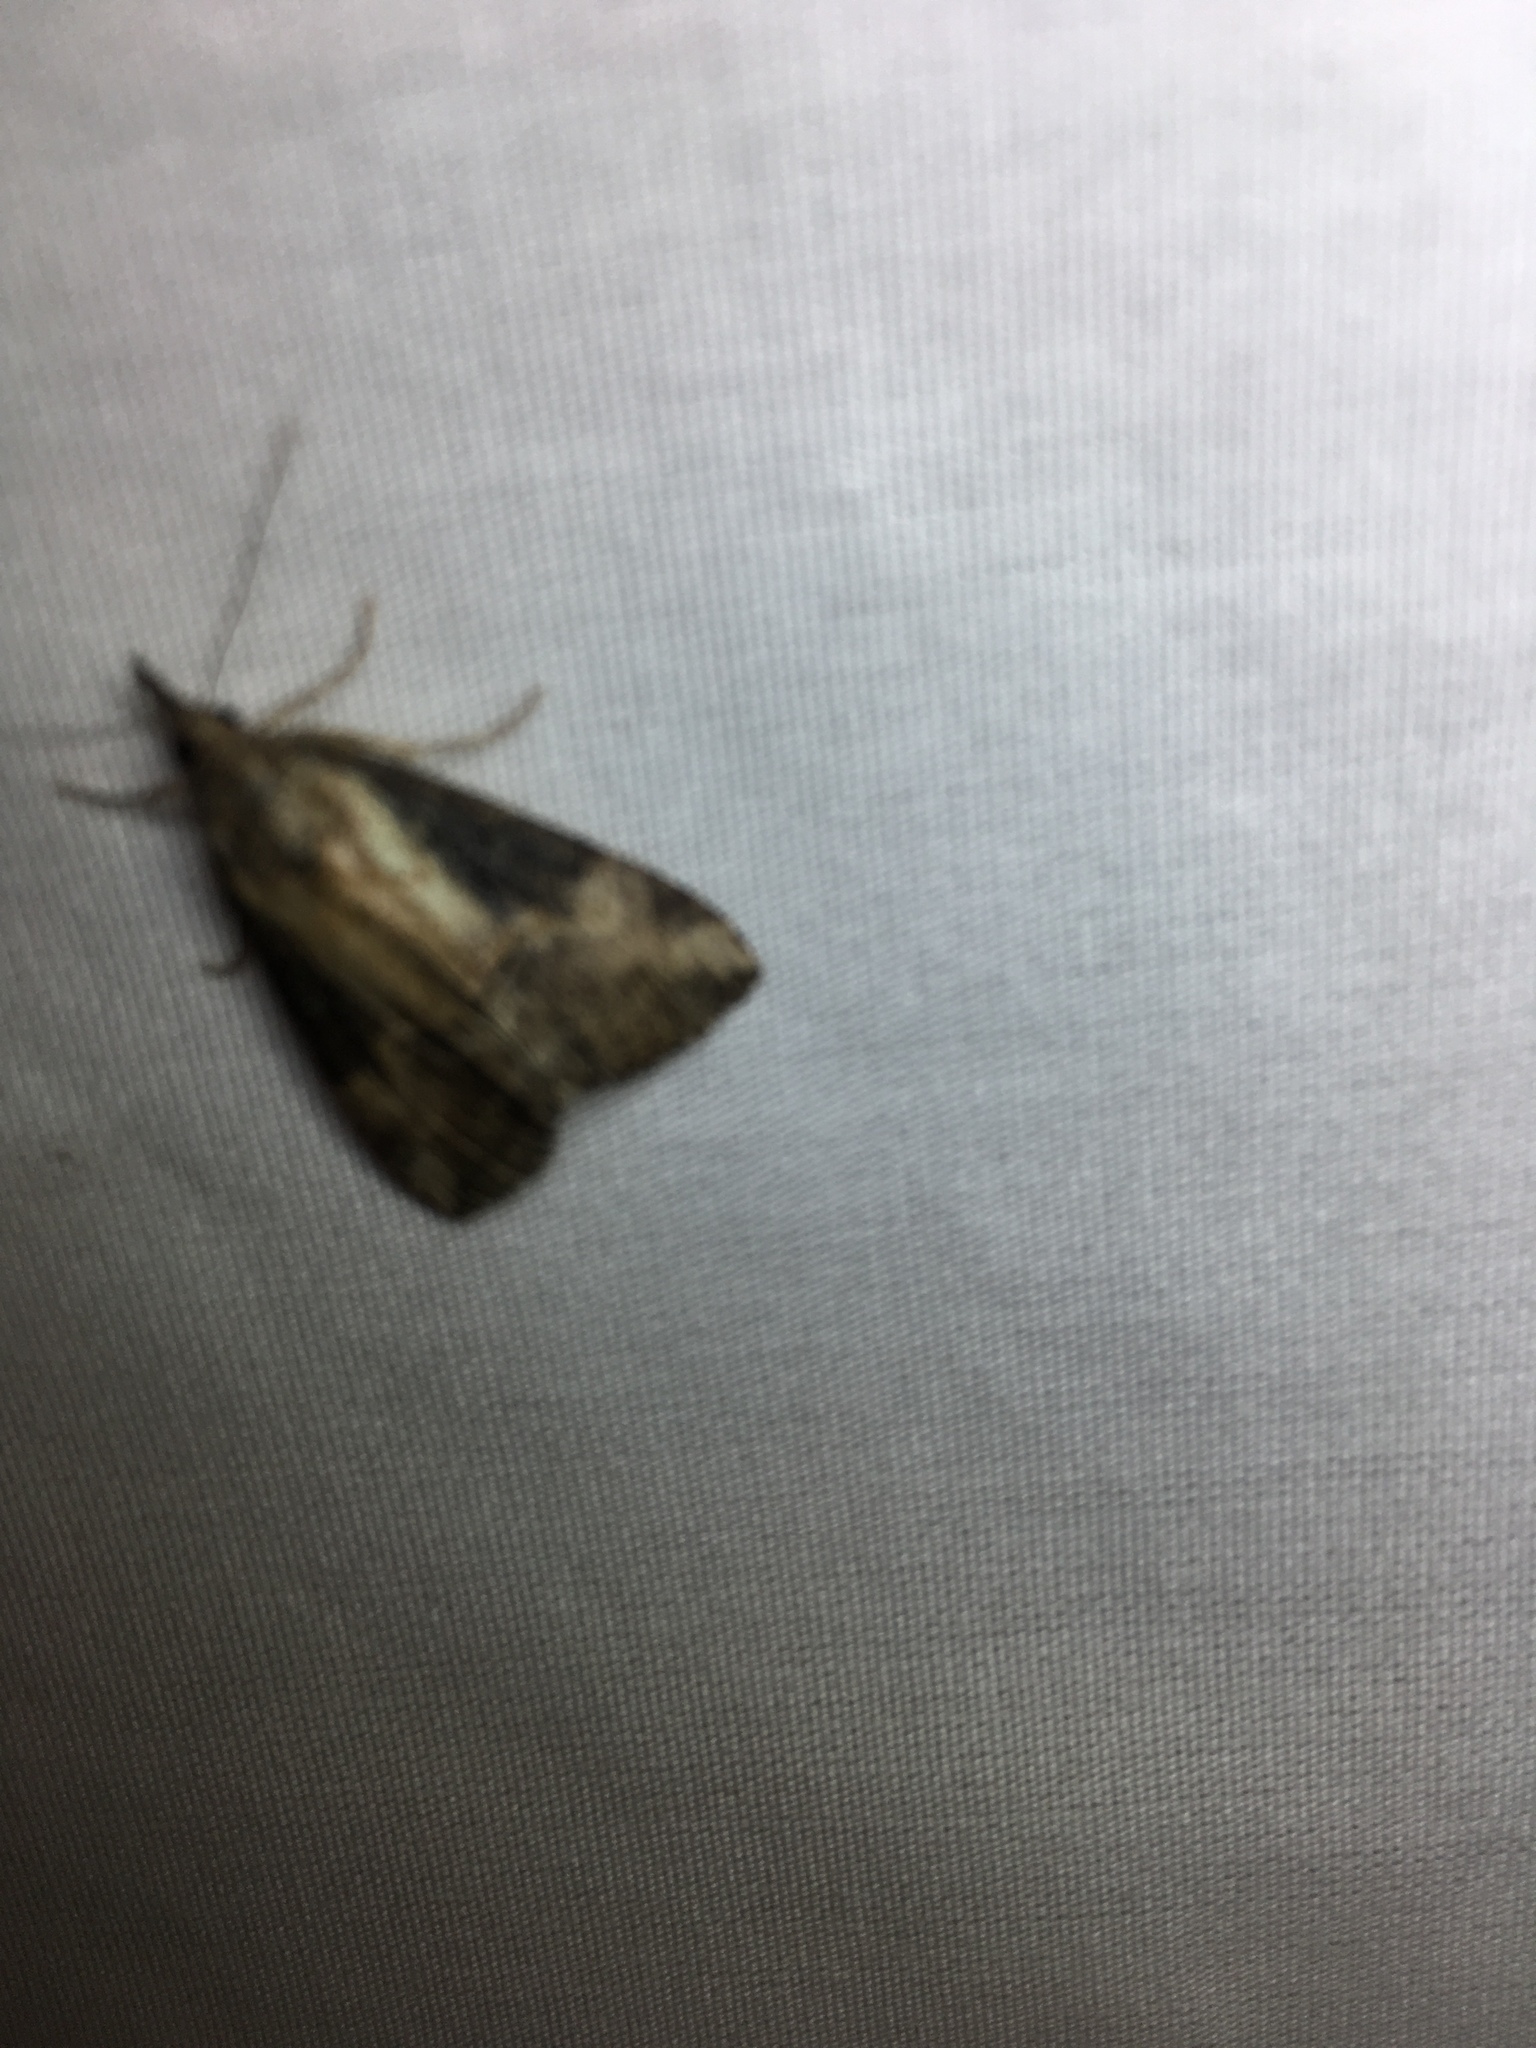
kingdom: Animalia
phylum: Arthropoda
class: Insecta
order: Lepidoptera
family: Erebidae
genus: Hypena
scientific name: Hypena scabra
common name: Green cloverworm
